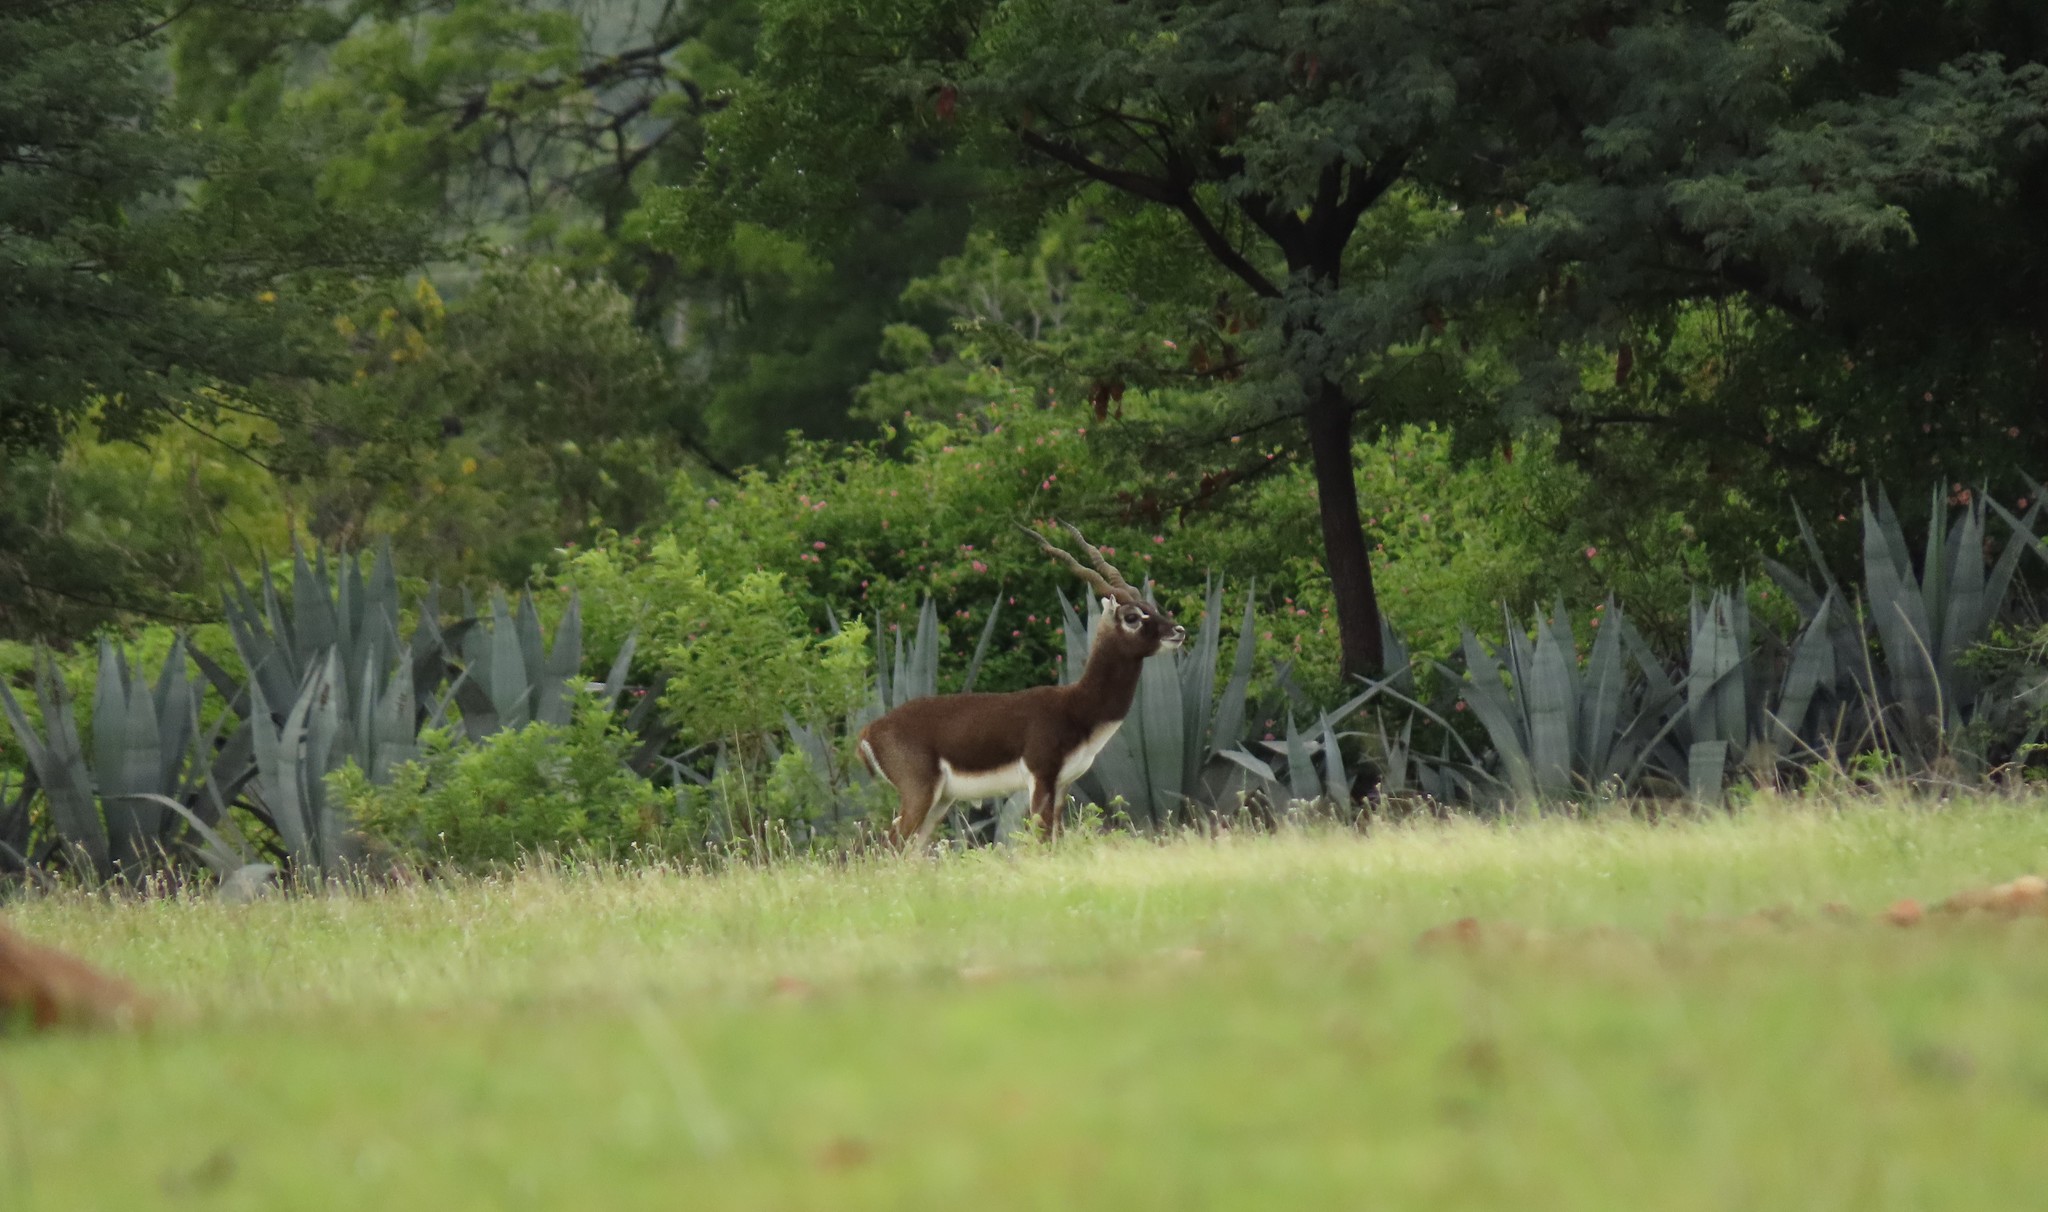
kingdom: Animalia
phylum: Chordata
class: Mammalia
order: Artiodactyla
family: Bovidae
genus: Antilope
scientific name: Antilope cervicapra
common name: Blackbuck
